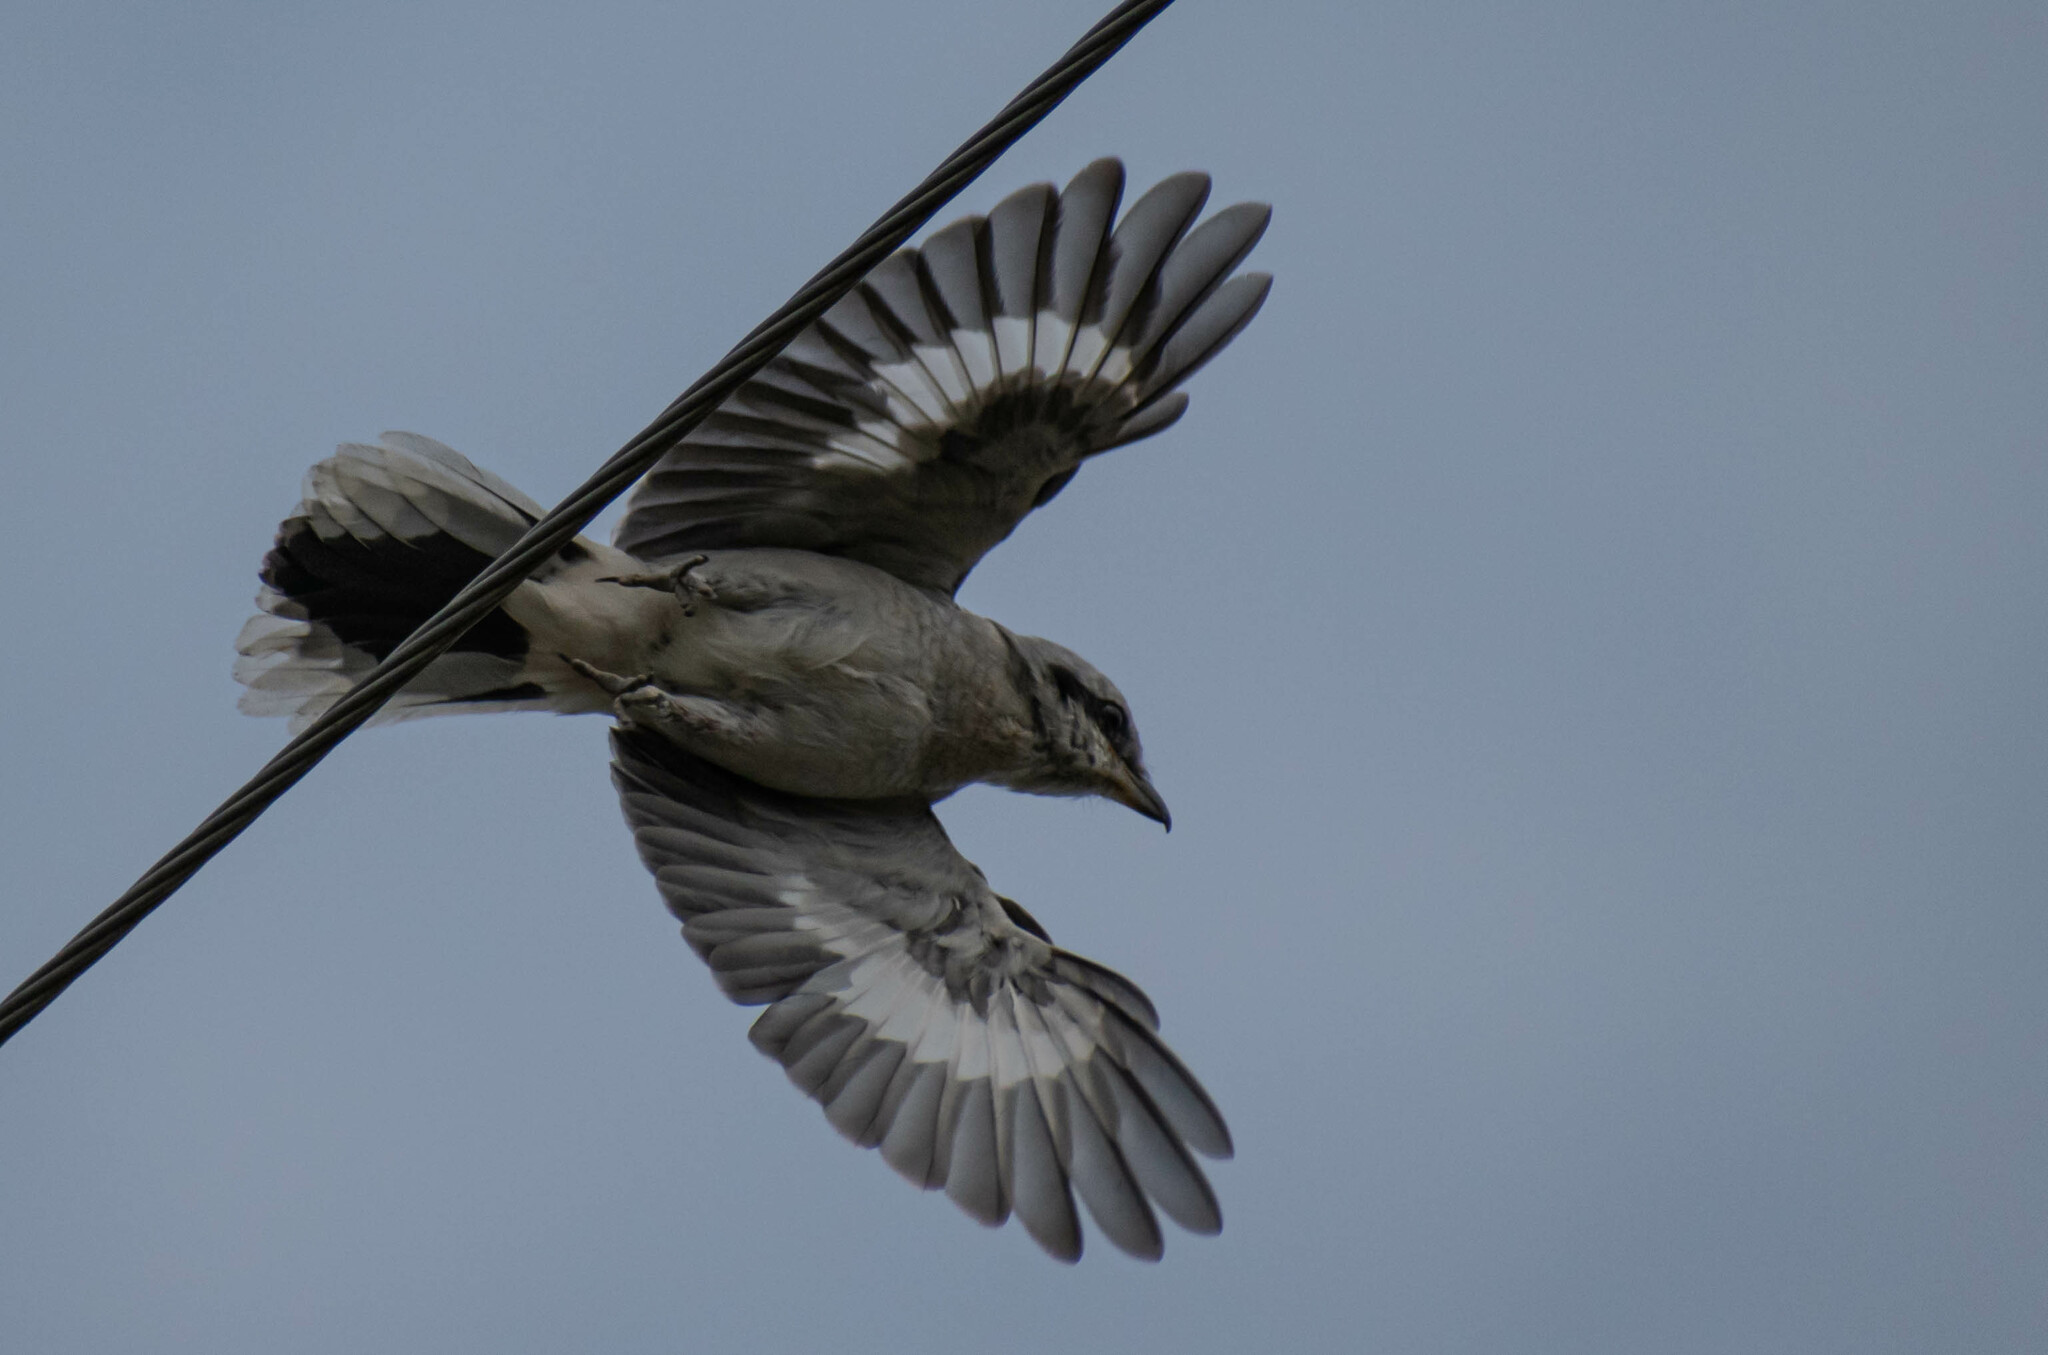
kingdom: Animalia
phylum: Chordata
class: Aves
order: Passeriformes
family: Laniidae
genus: Lanius
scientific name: Lanius excubitor
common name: Great grey shrike
